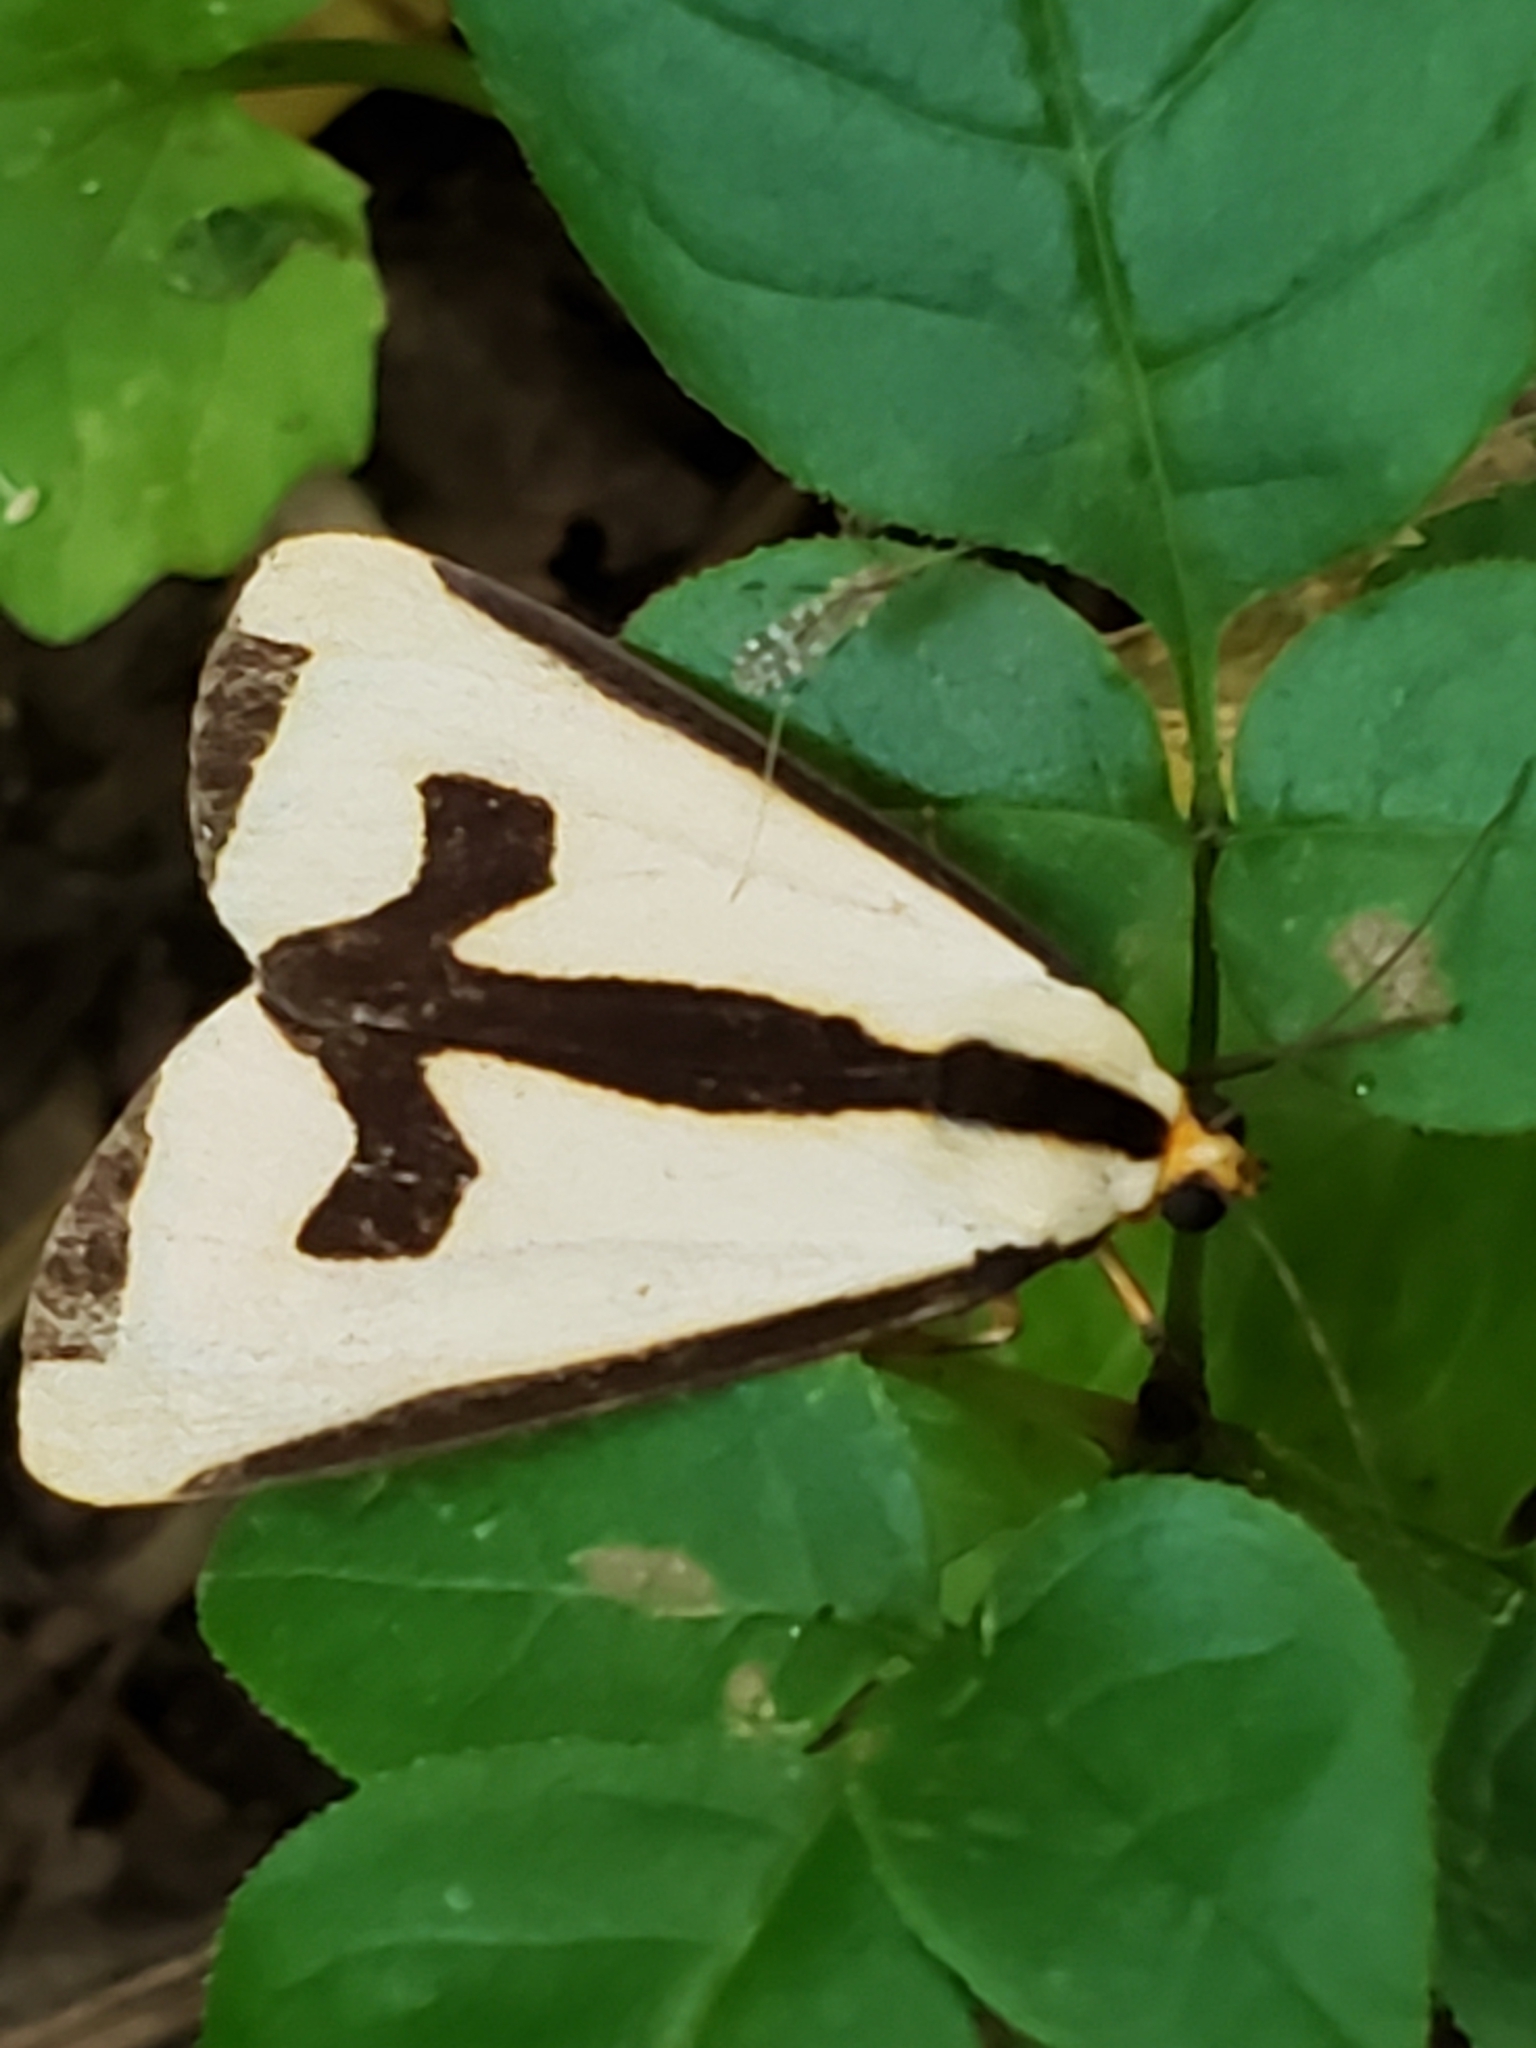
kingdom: Animalia
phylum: Arthropoda
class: Insecta
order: Lepidoptera
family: Erebidae
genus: Haploa
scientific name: Haploa clymene
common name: Clymene moth
